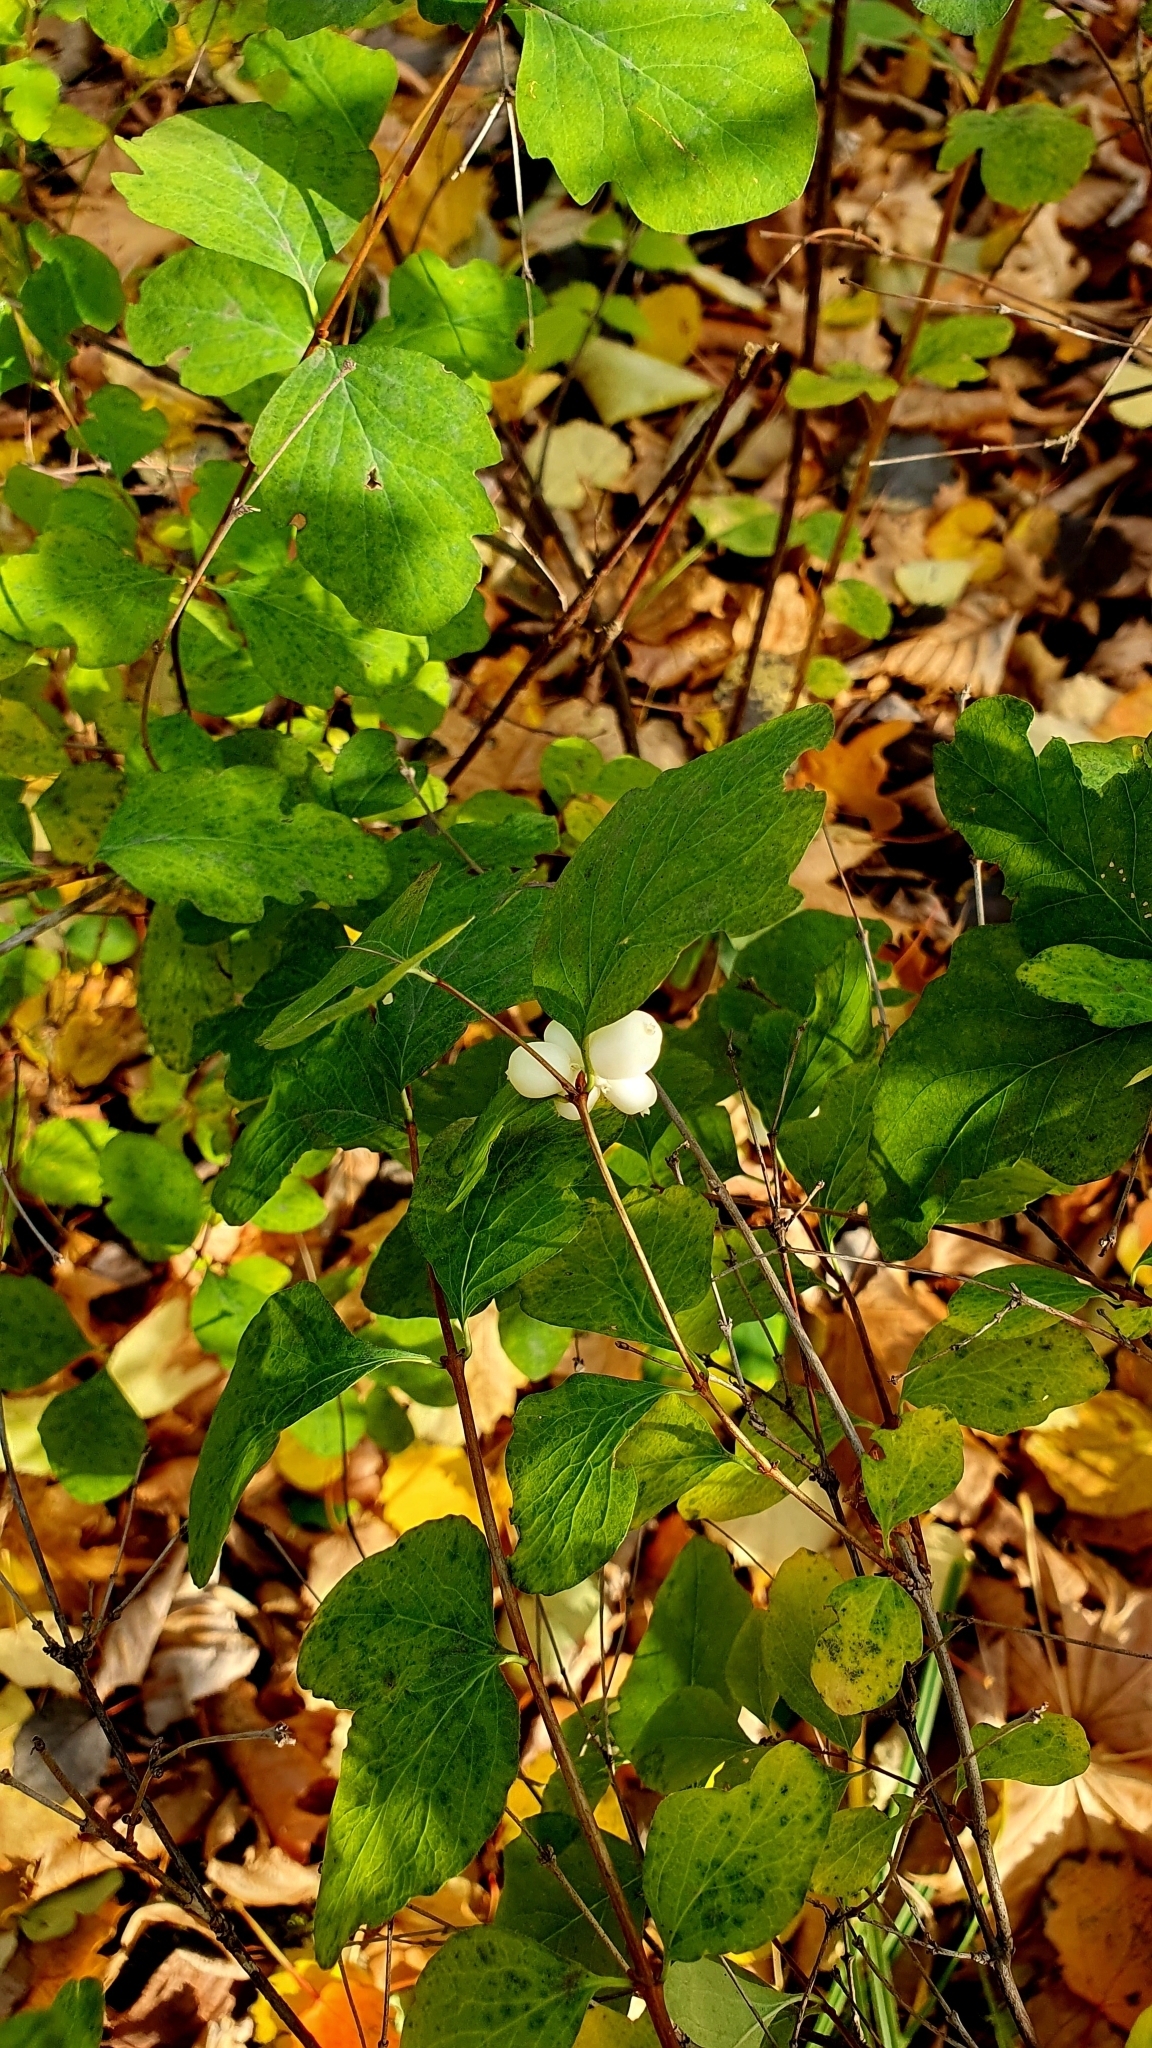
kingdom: Plantae
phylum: Tracheophyta
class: Magnoliopsida
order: Dipsacales
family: Caprifoliaceae
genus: Symphoricarpos
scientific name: Symphoricarpos albus
